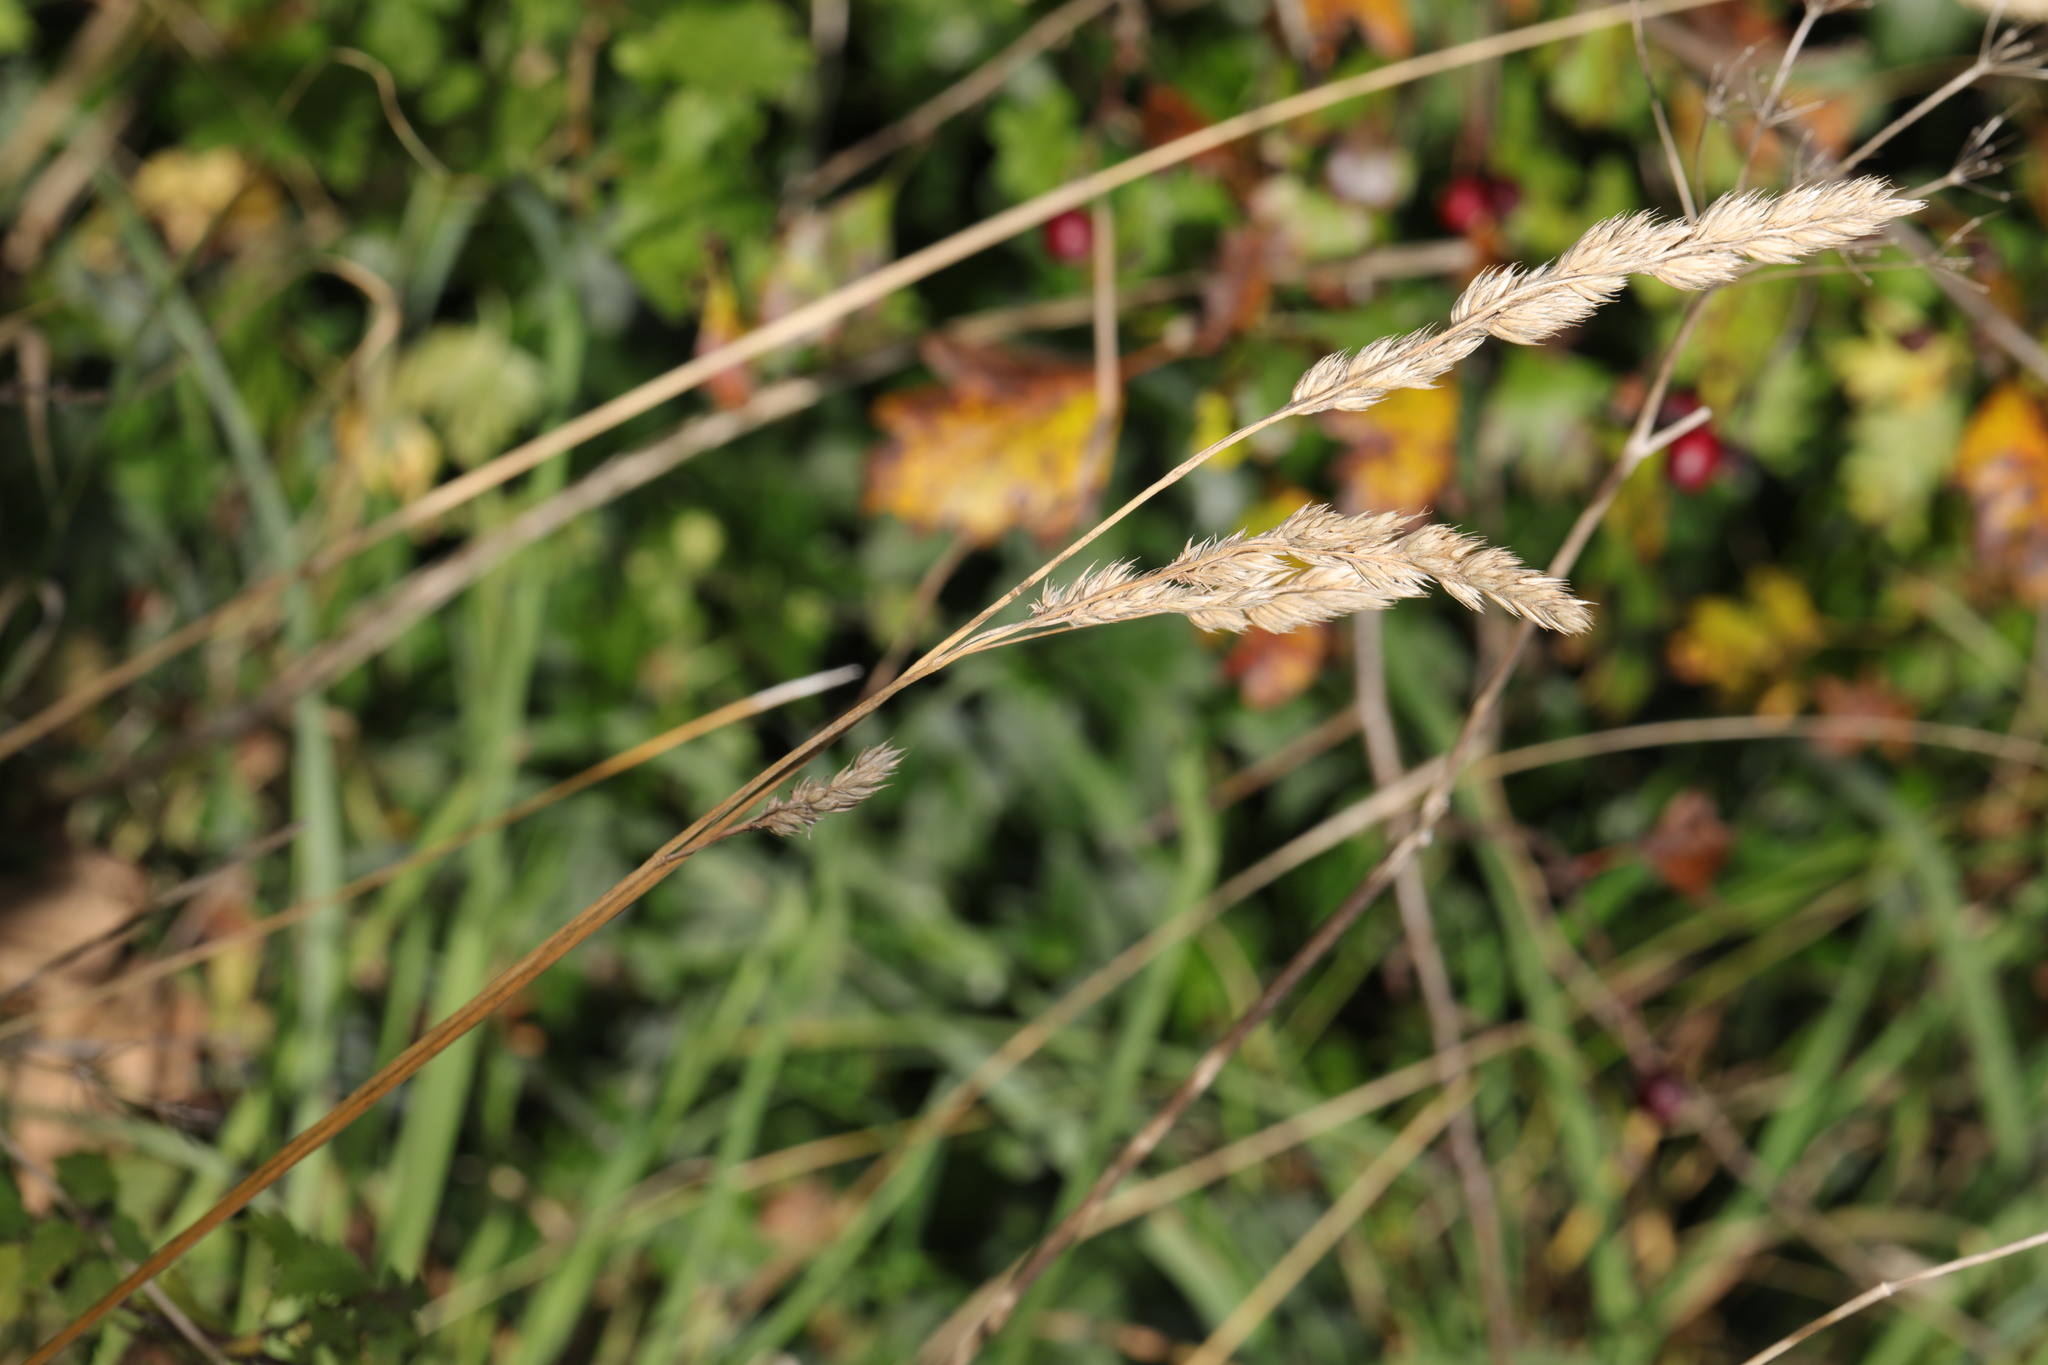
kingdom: Plantae
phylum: Tracheophyta
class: Liliopsida
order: Poales
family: Poaceae
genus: Dactylis
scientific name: Dactylis glomerata
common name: Orchardgrass
